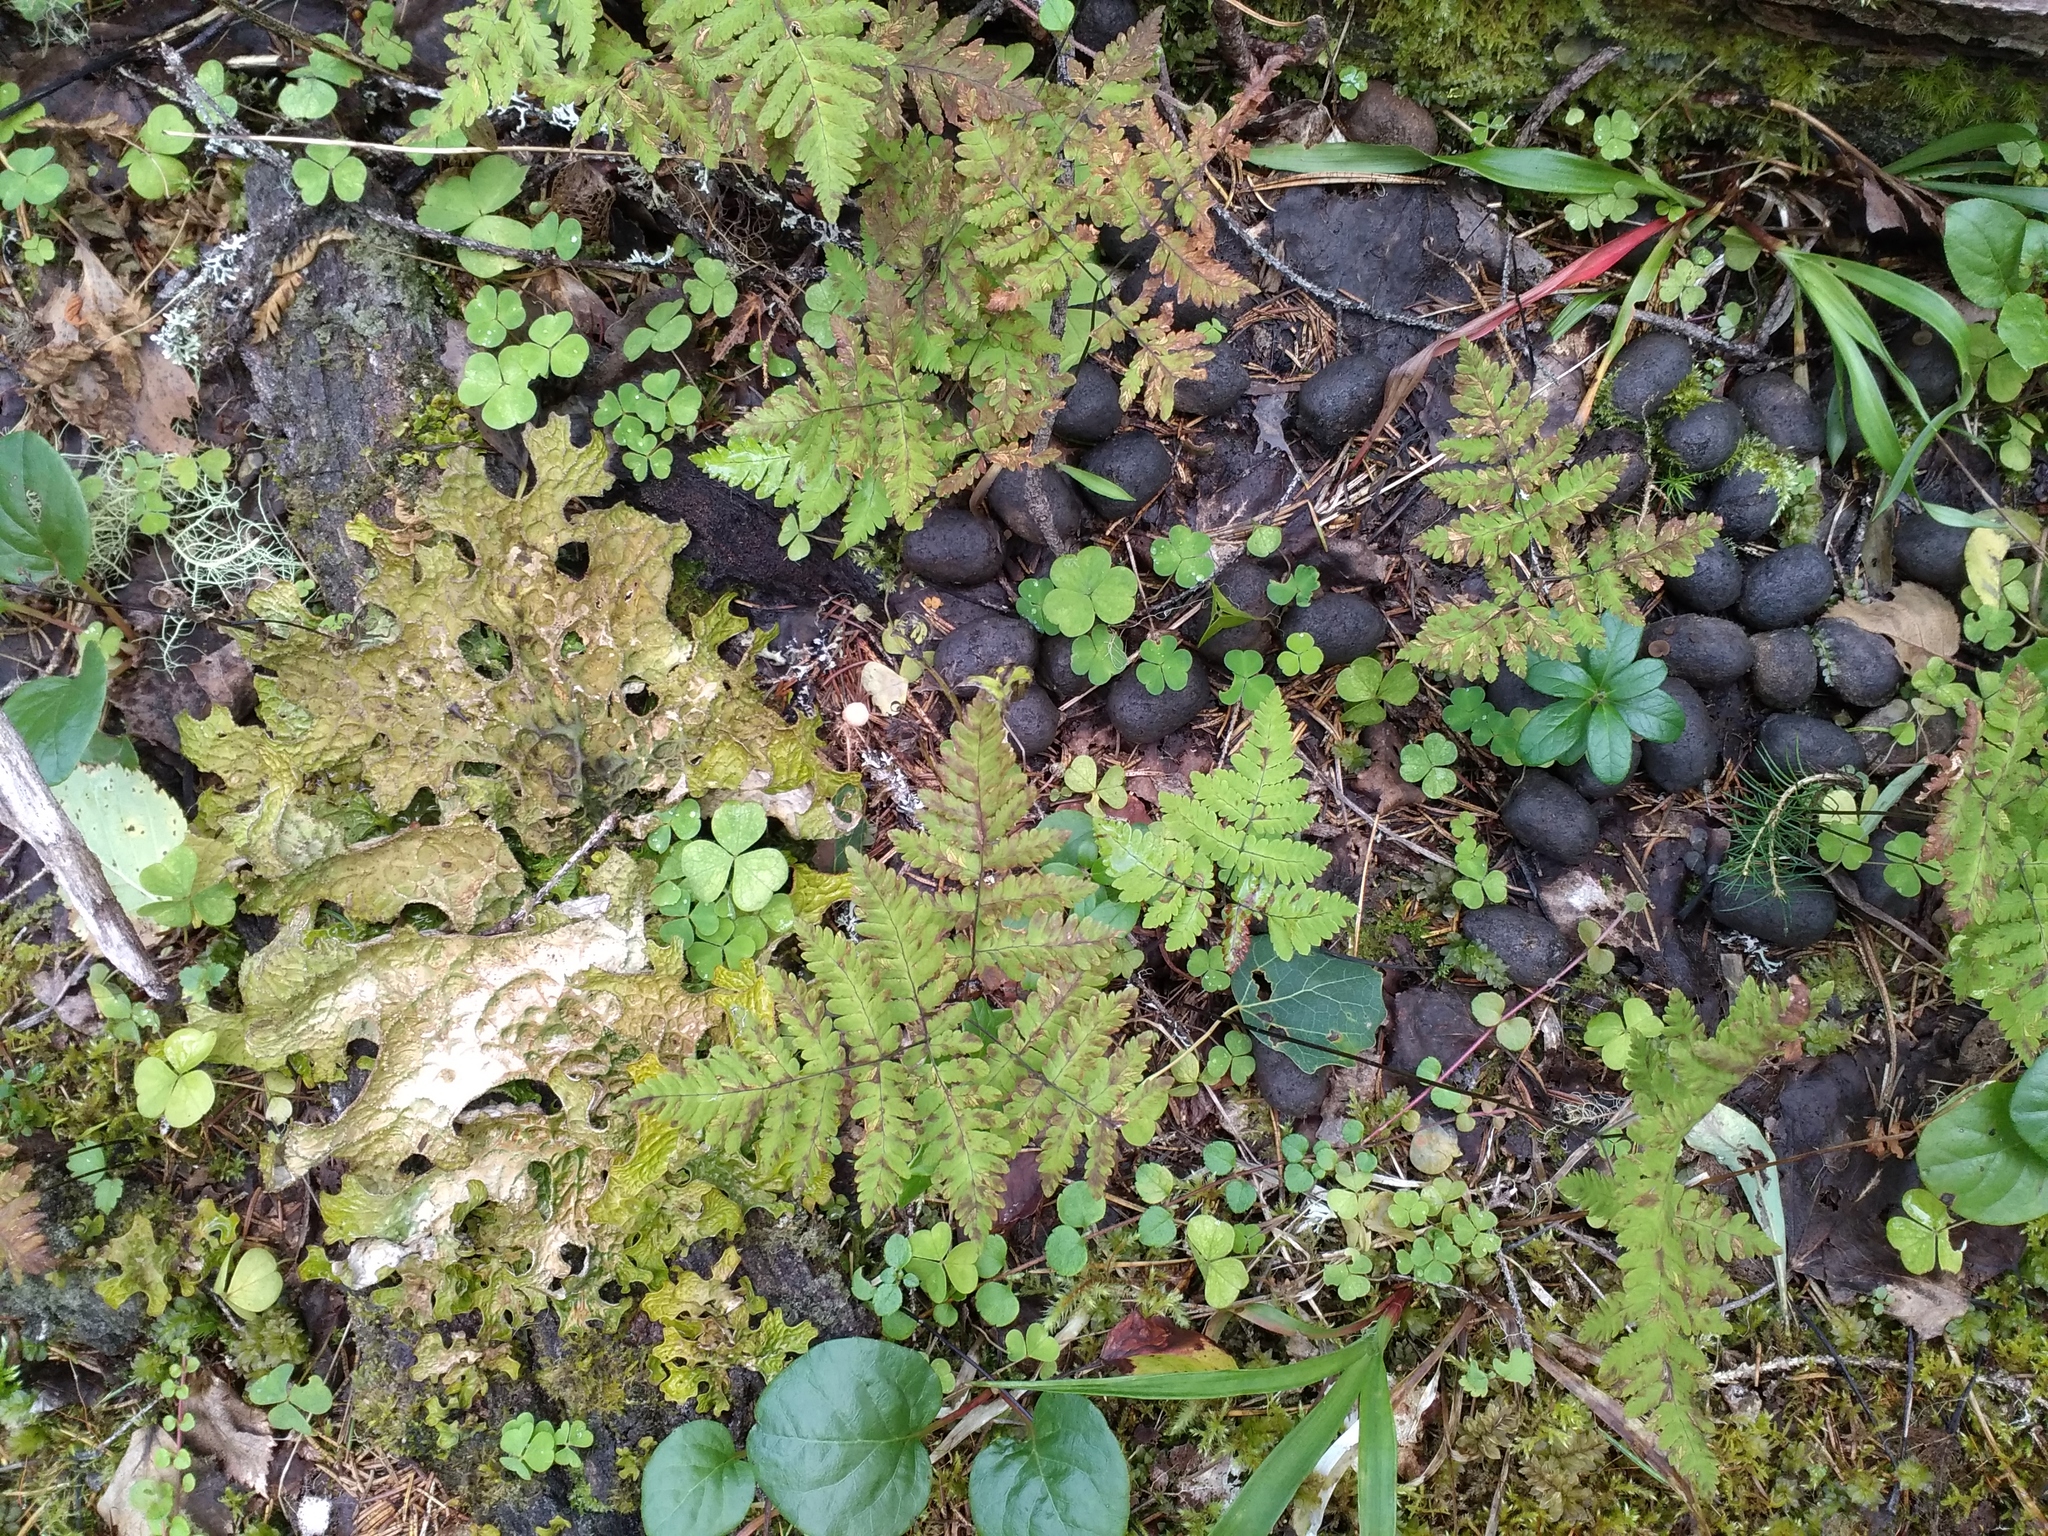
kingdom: Fungi
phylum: Ascomycota
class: Lecanoromycetes
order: Peltigerales
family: Lobariaceae
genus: Lobaria
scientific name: Lobaria pulmonaria
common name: Lungwort
